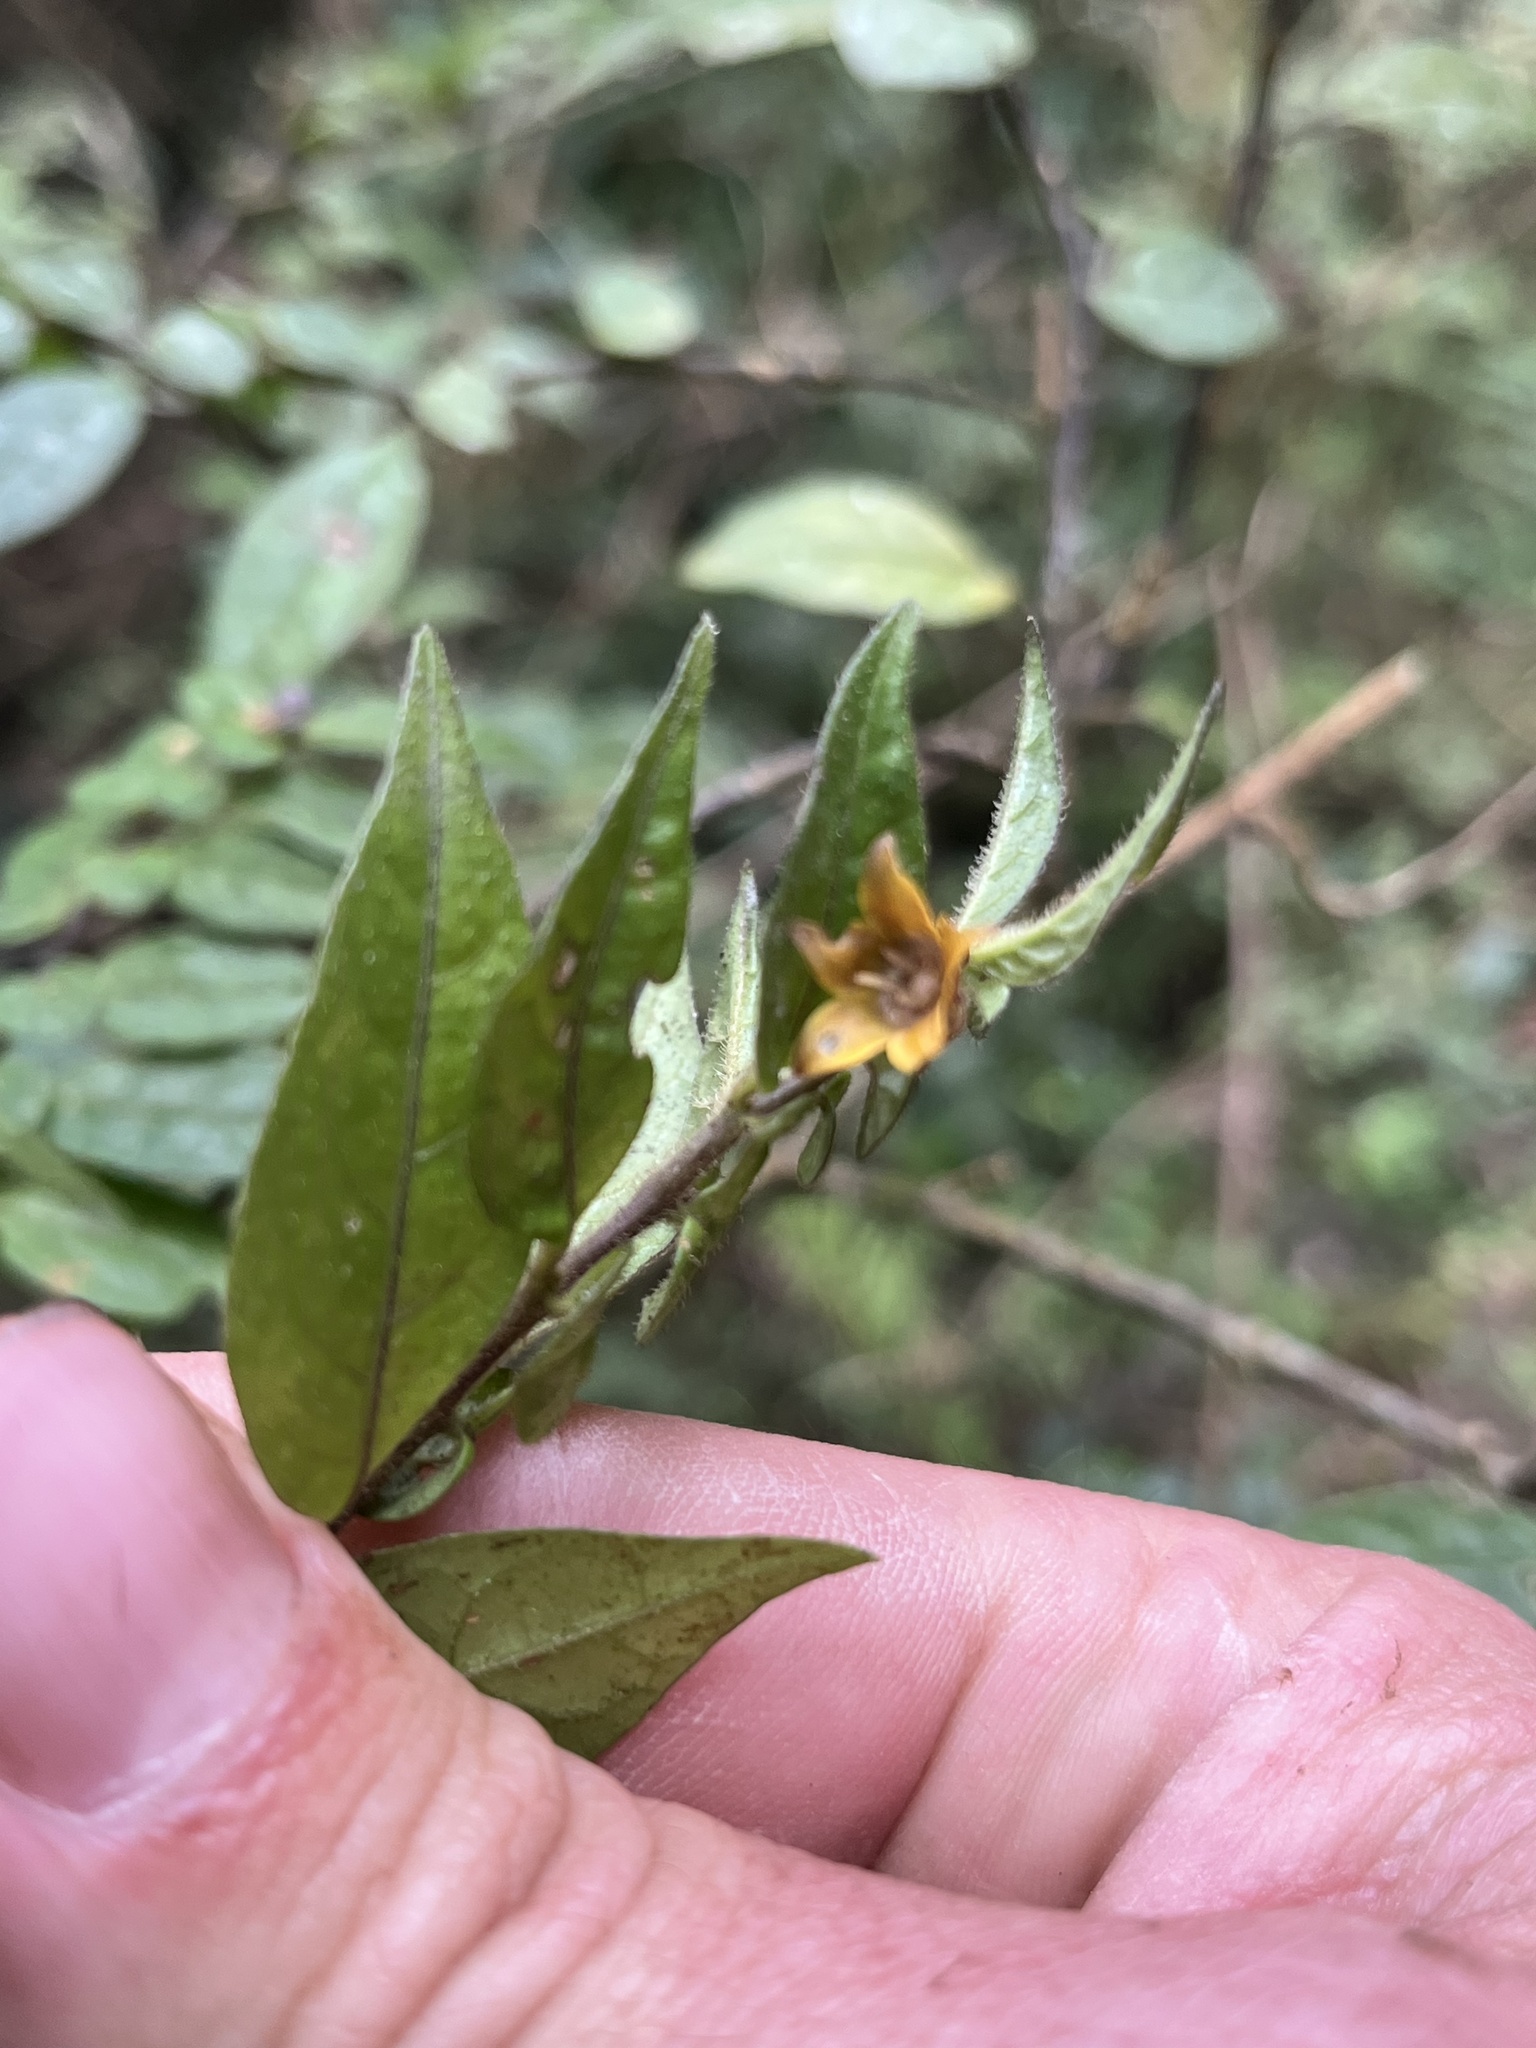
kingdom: Plantae
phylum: Tracheophyta
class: Magnoliopsida
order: Solanales
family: Solanaceae
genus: Capsicum
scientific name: Capsicum dimorphum
